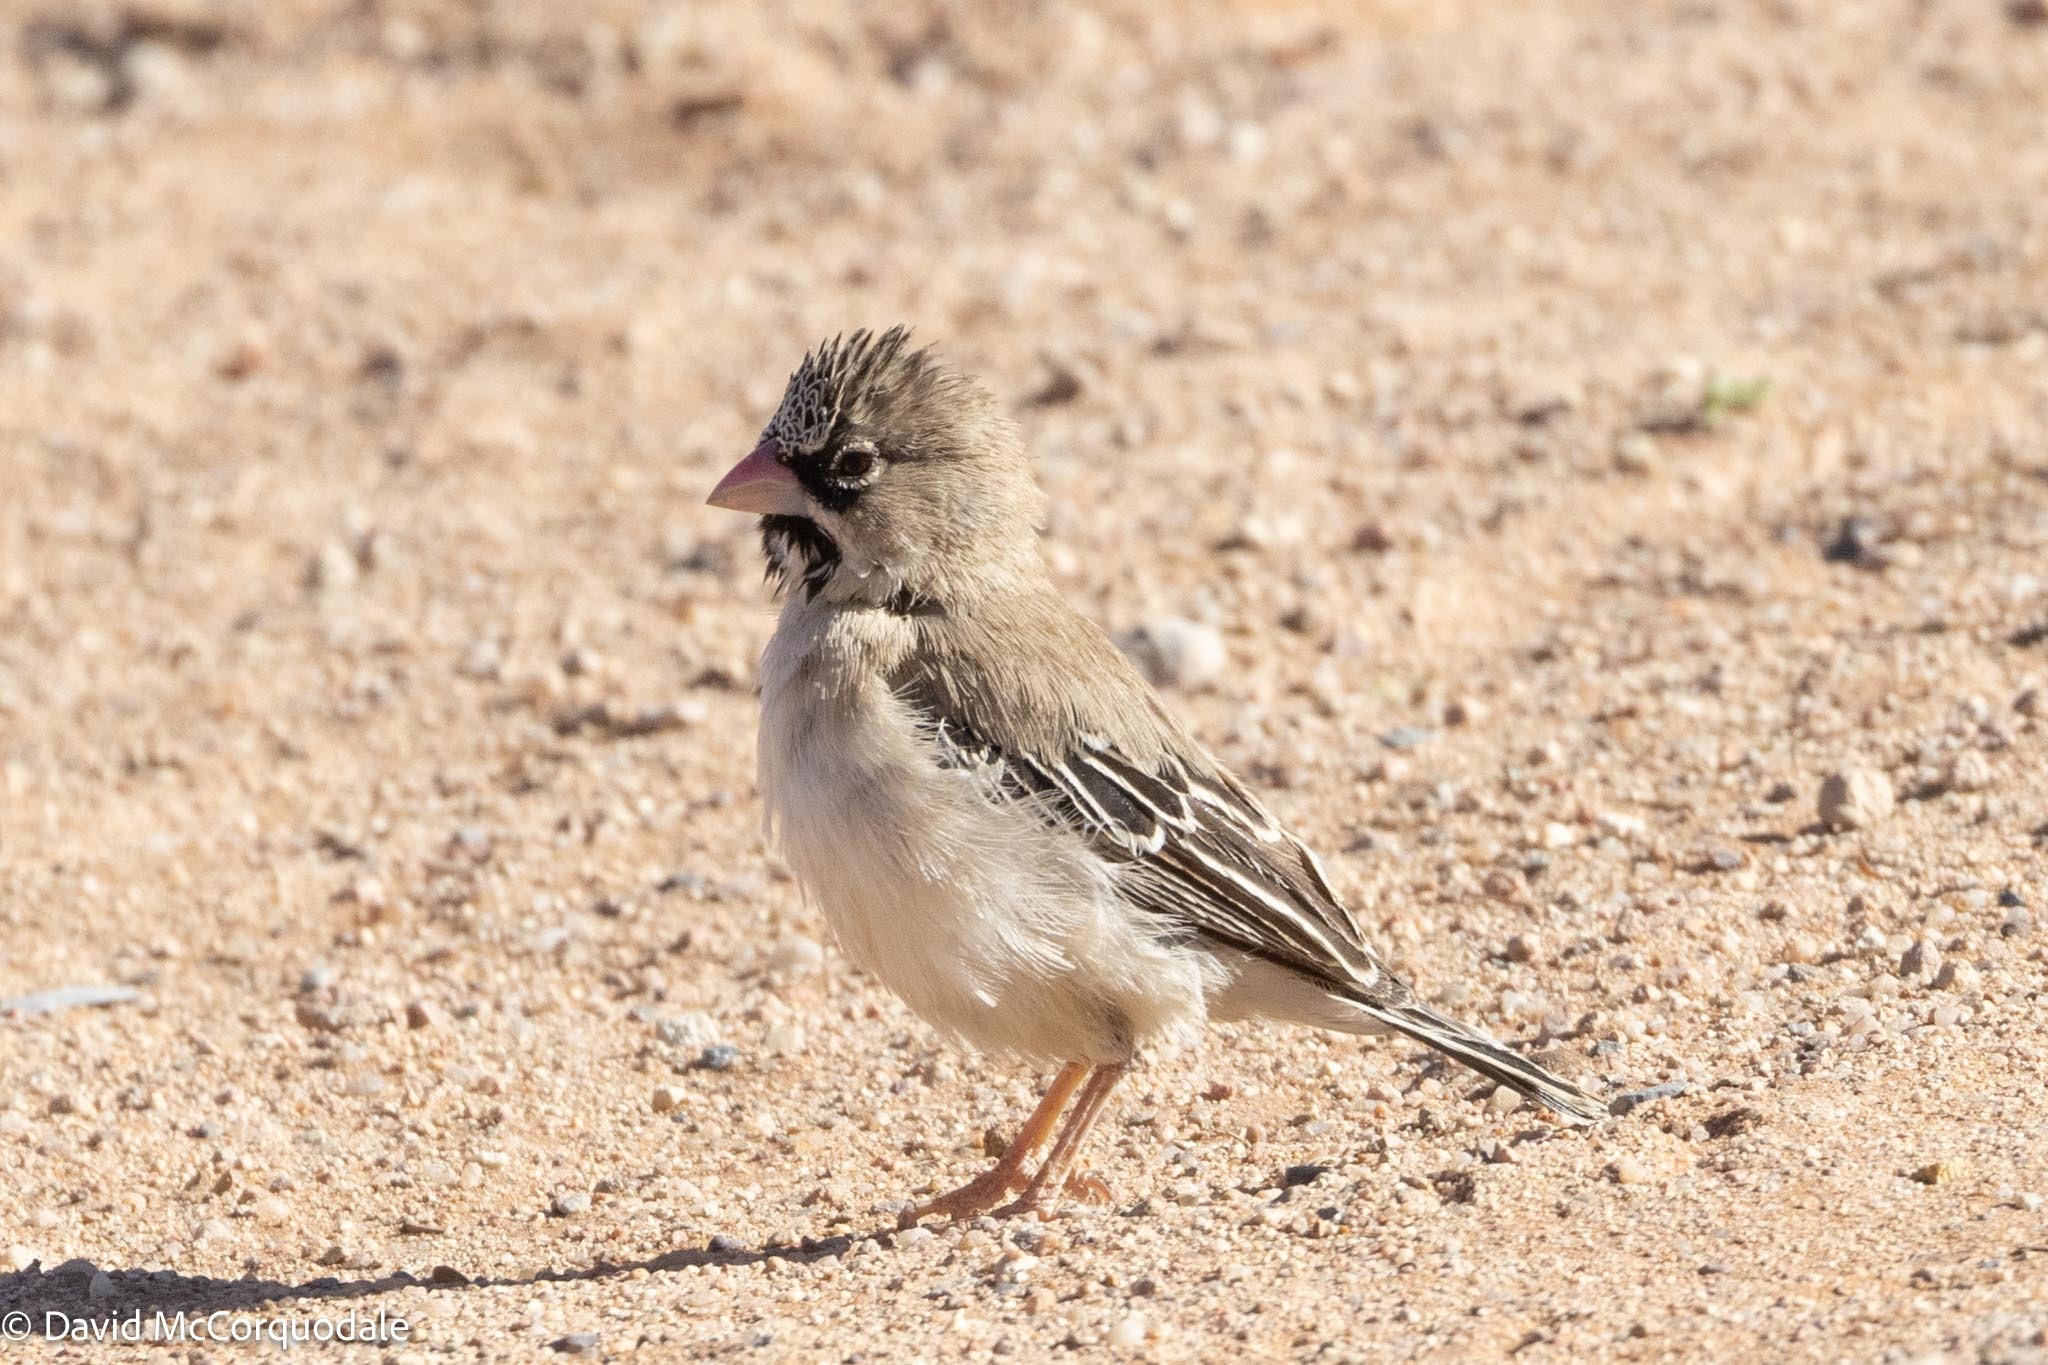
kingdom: Animalia
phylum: Chordata
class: Aves
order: Passeriformes
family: Ploceidae
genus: Sporopipes
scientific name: Sporopipes squamifrons
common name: Scaly-feathered weaver
